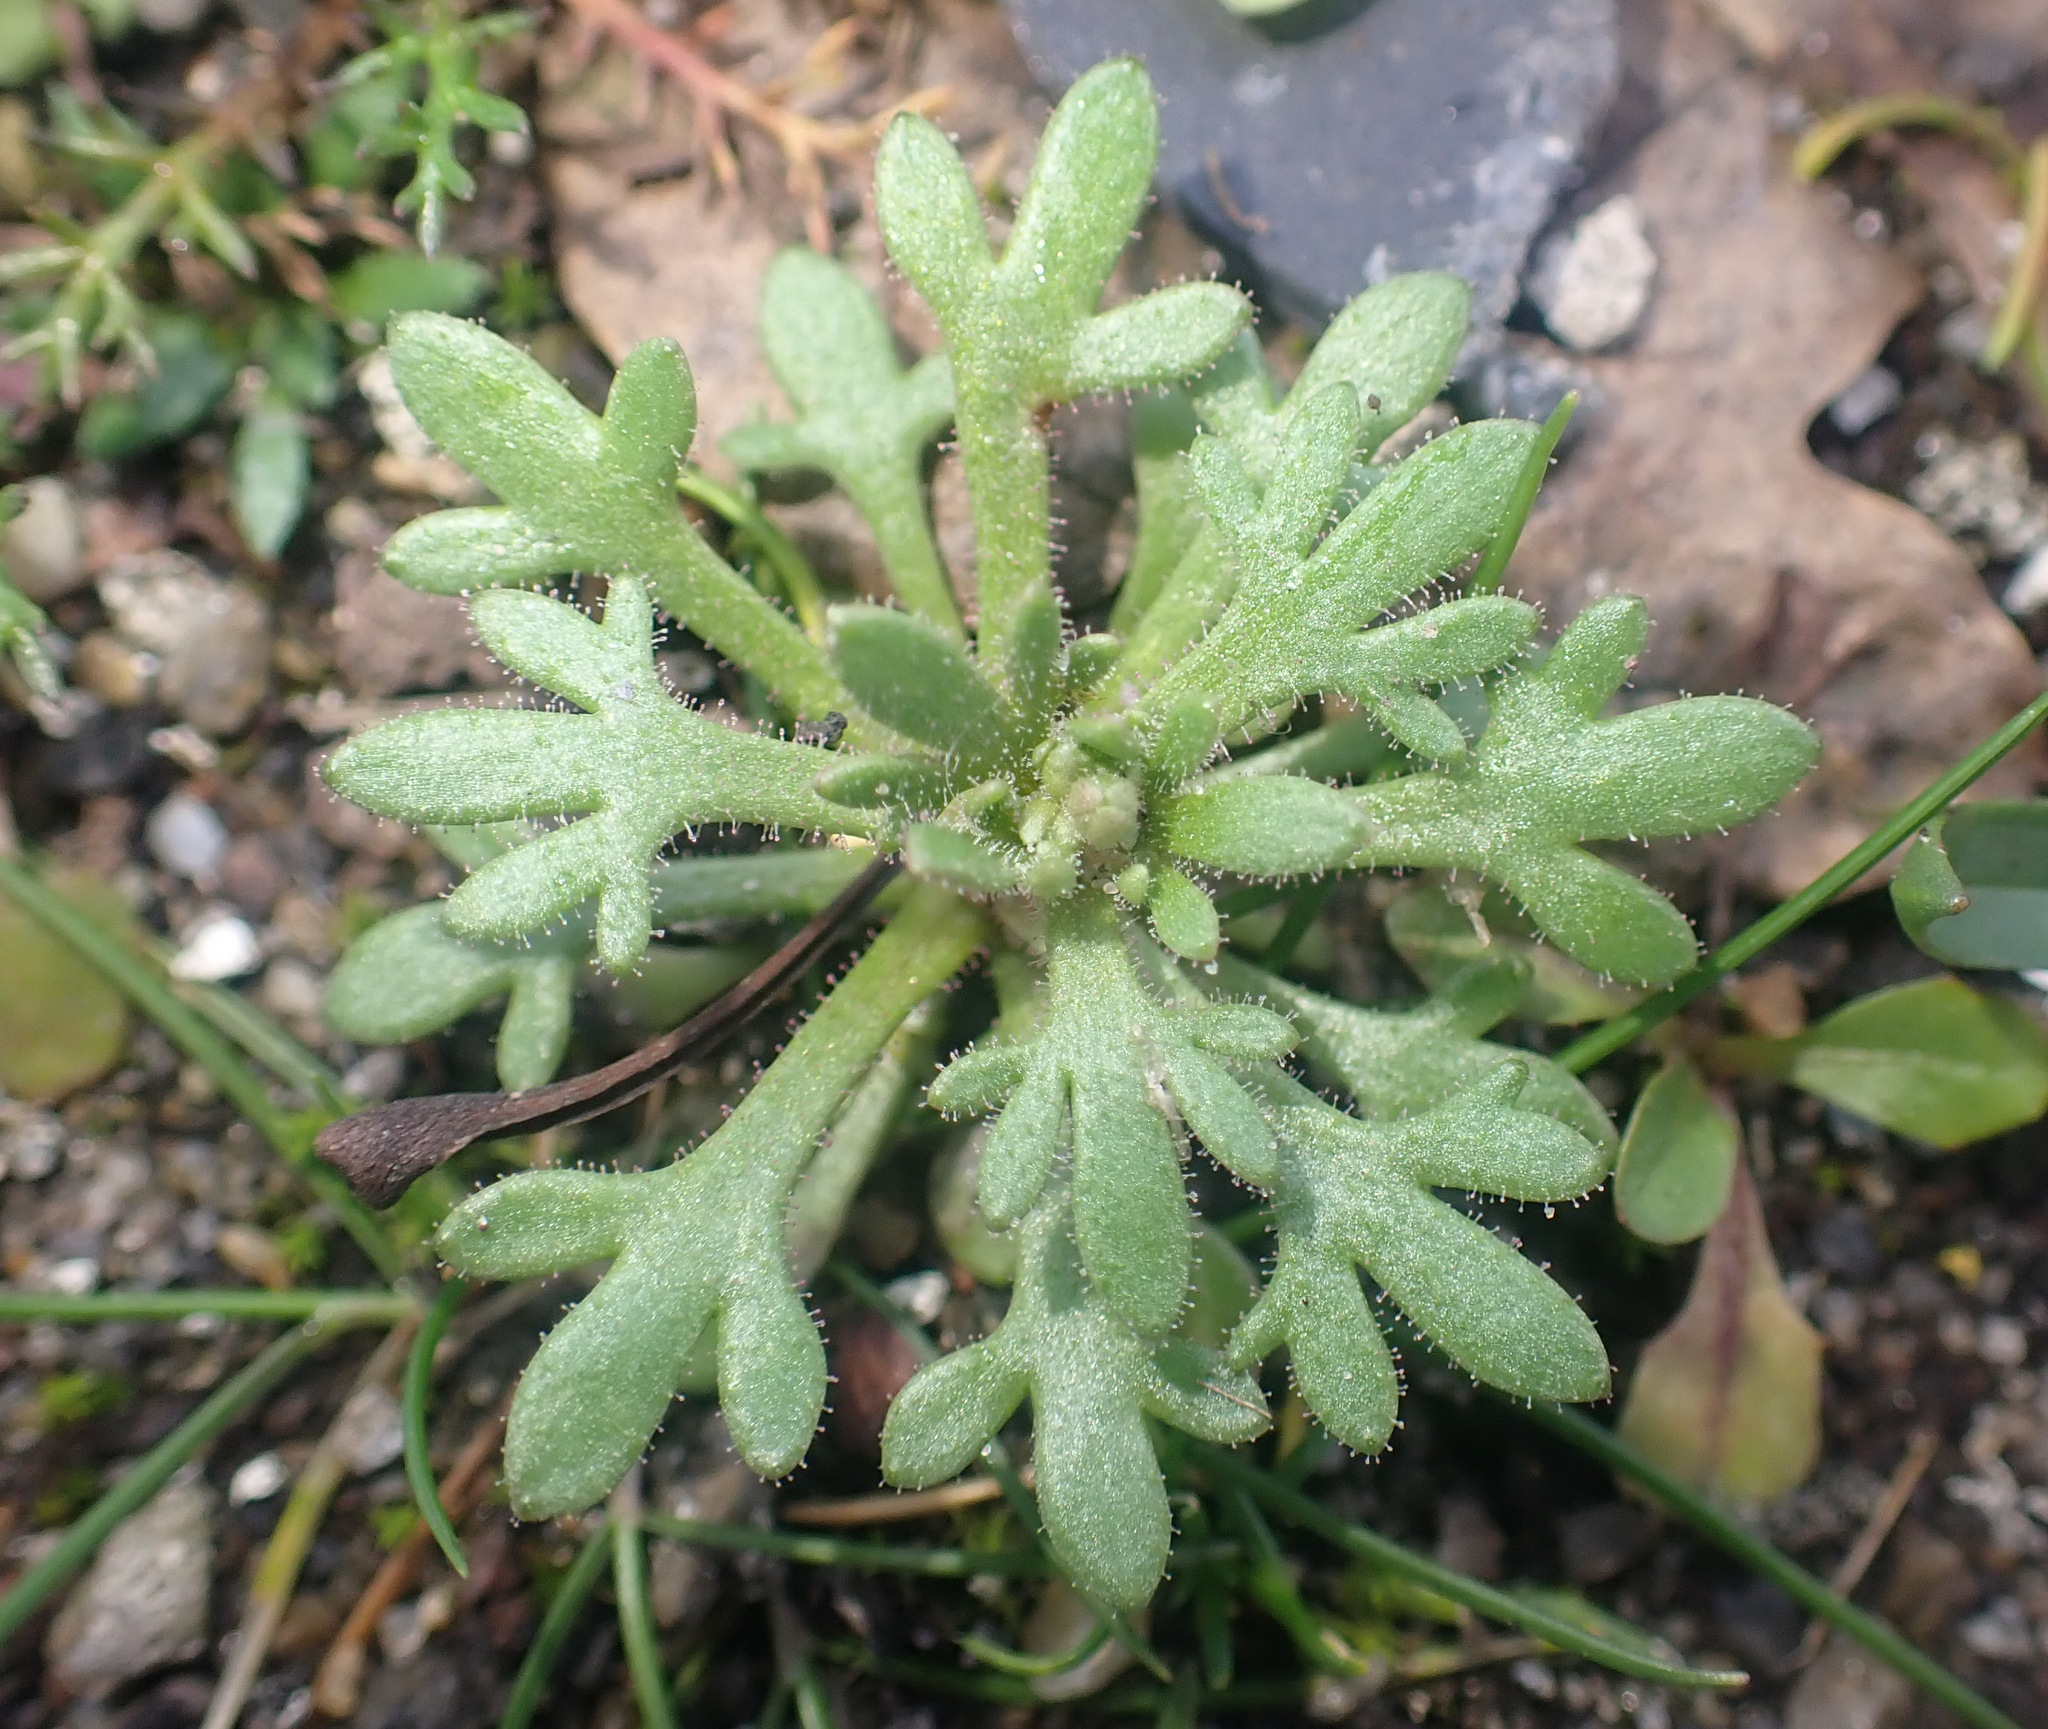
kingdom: Plantae
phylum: Tracheophyta
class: Magnoliopsida
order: Saxifragales
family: Saxifragaceae
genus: Saxifraga
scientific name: Saxifraga tridactylites
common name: Rue-leaved saxifrage
